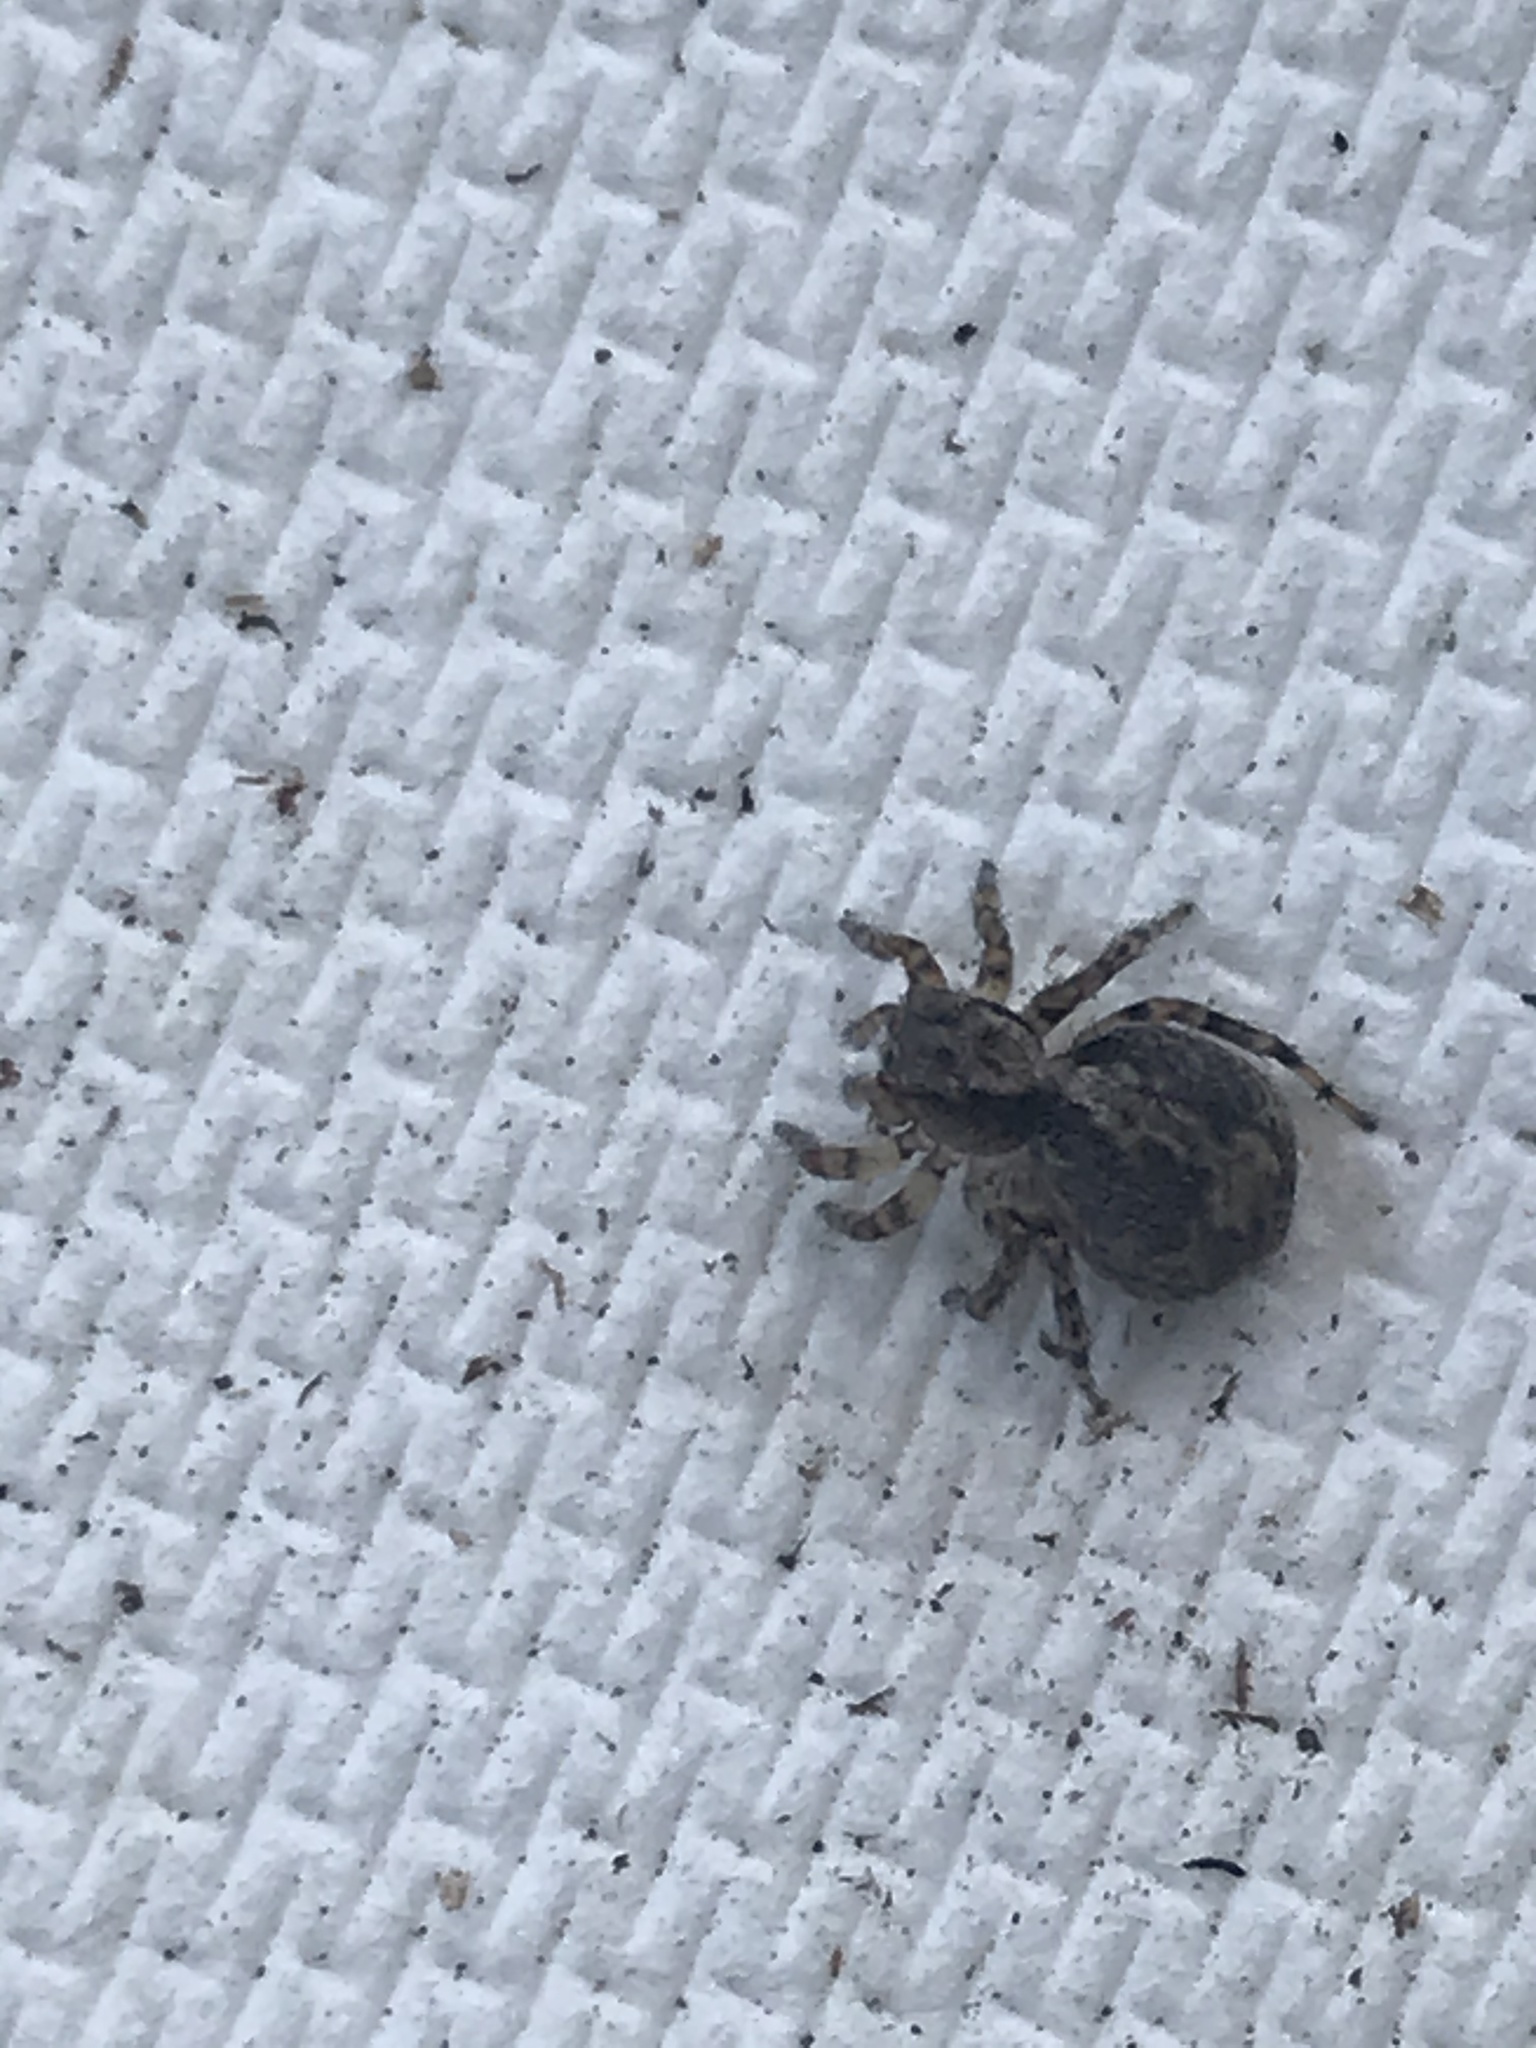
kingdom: Animalia
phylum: Arthropoda
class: Arachnida
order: Araneae
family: Salticidae
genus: Naphrys
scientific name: Naphrys pulex
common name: Flea jumping spider
